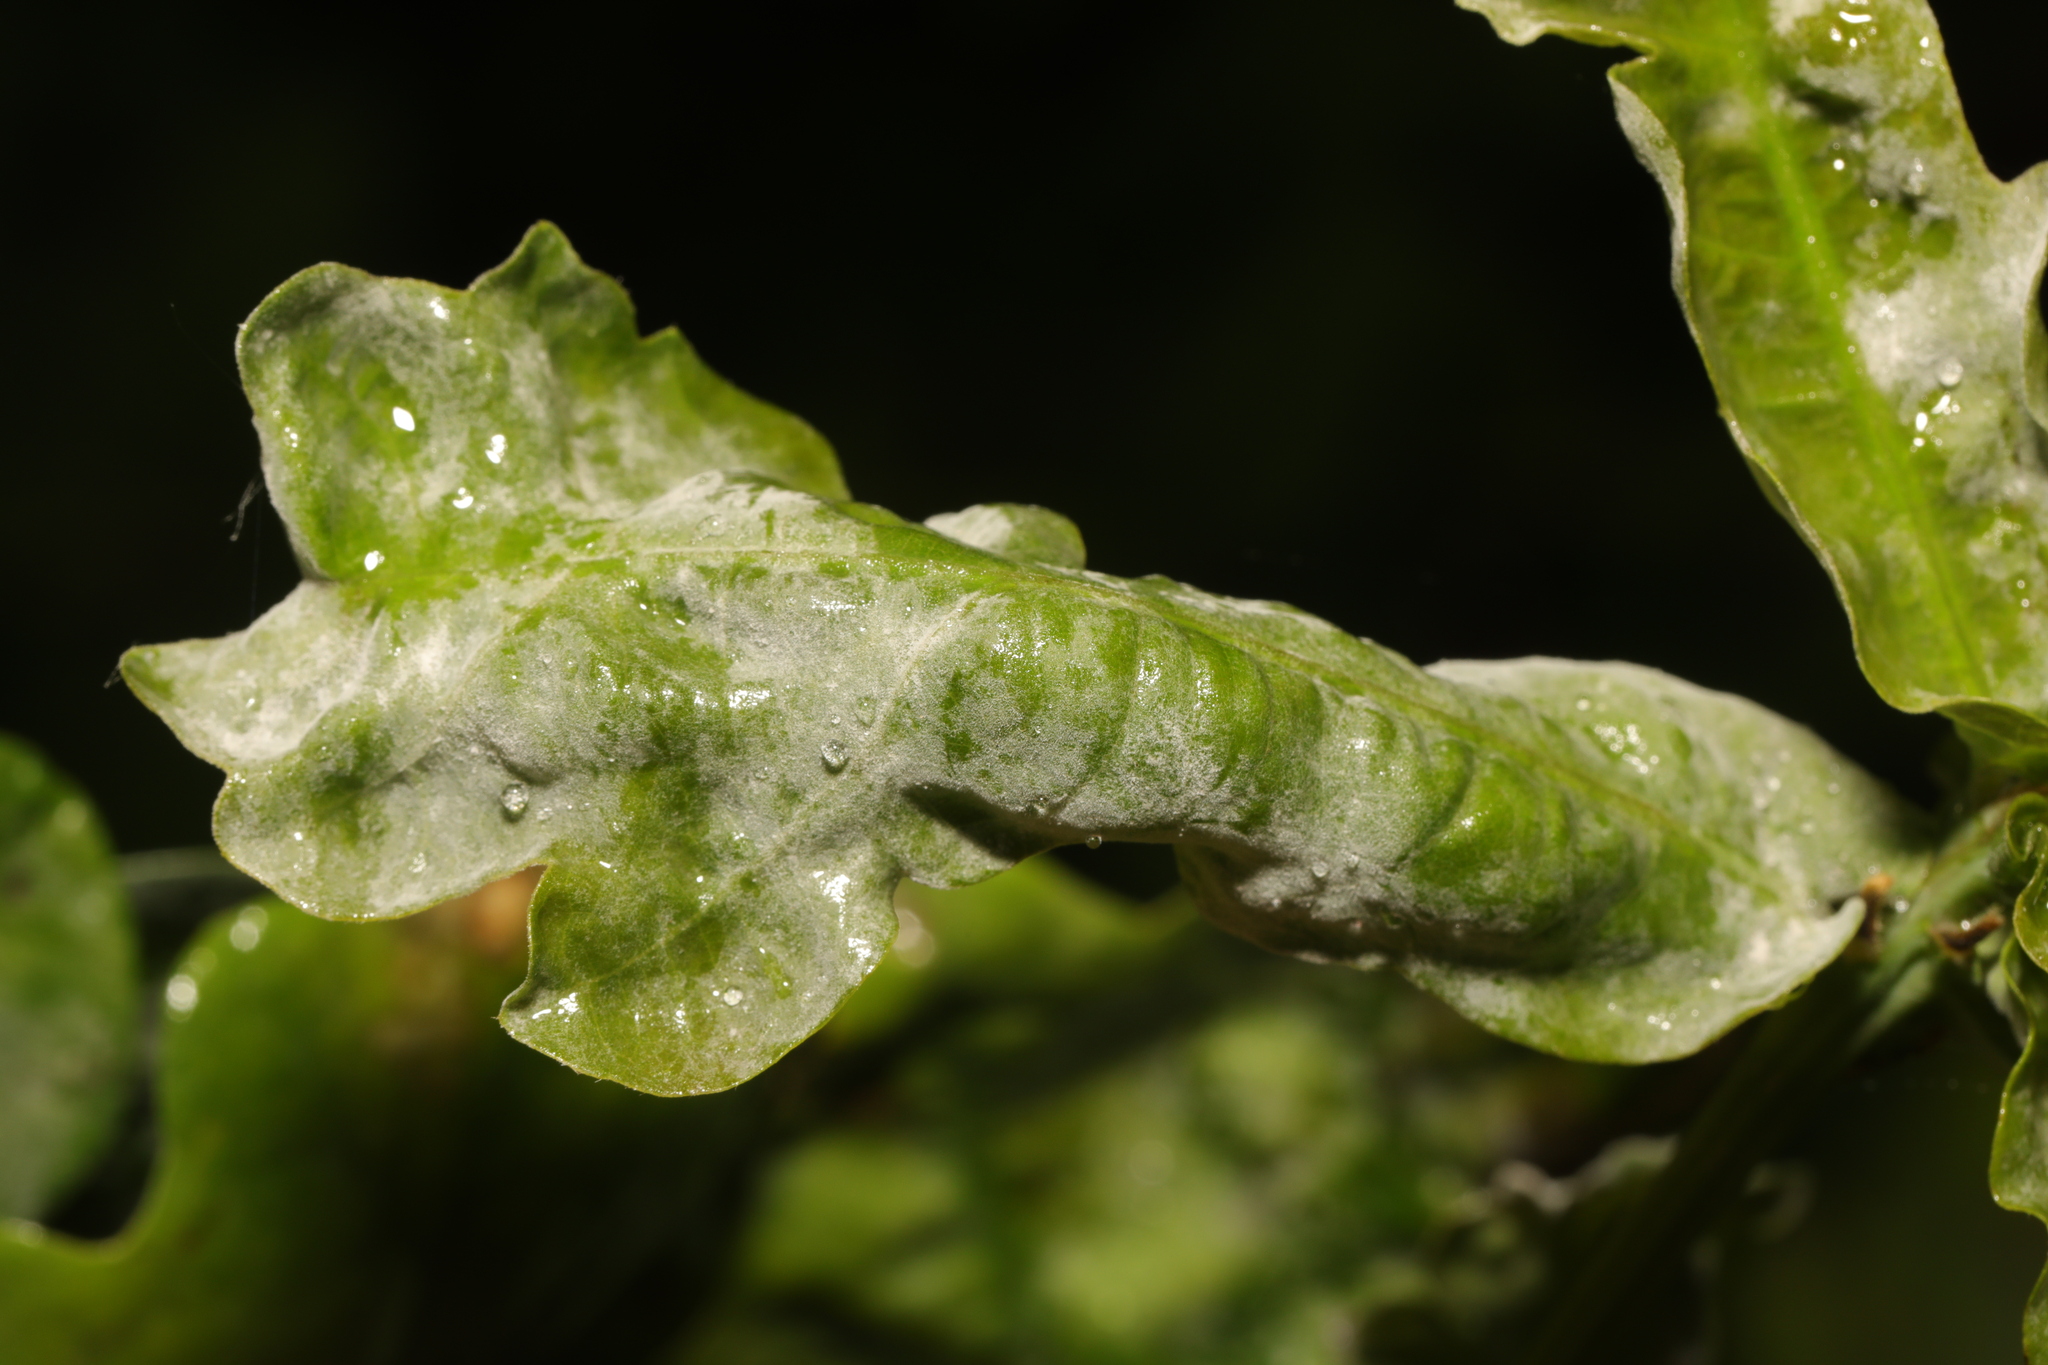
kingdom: Fungi
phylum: Ascomycota
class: Leotiomycetes
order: Helotiales
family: Erysiphaceae
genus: Erysiphe
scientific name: Erysiphe alphitoides
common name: Oak mildew
